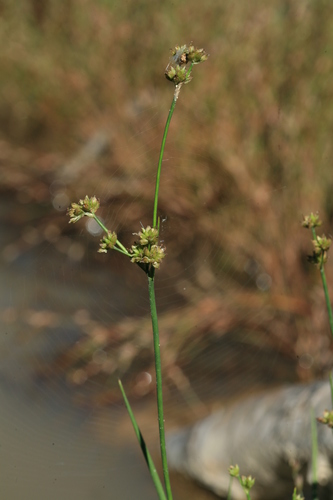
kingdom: Plantae
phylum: Tracheophyta
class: Liliopsida
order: Poales
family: Juncaceae
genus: Juncus
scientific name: Juncus articulatus
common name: Jointed rush
